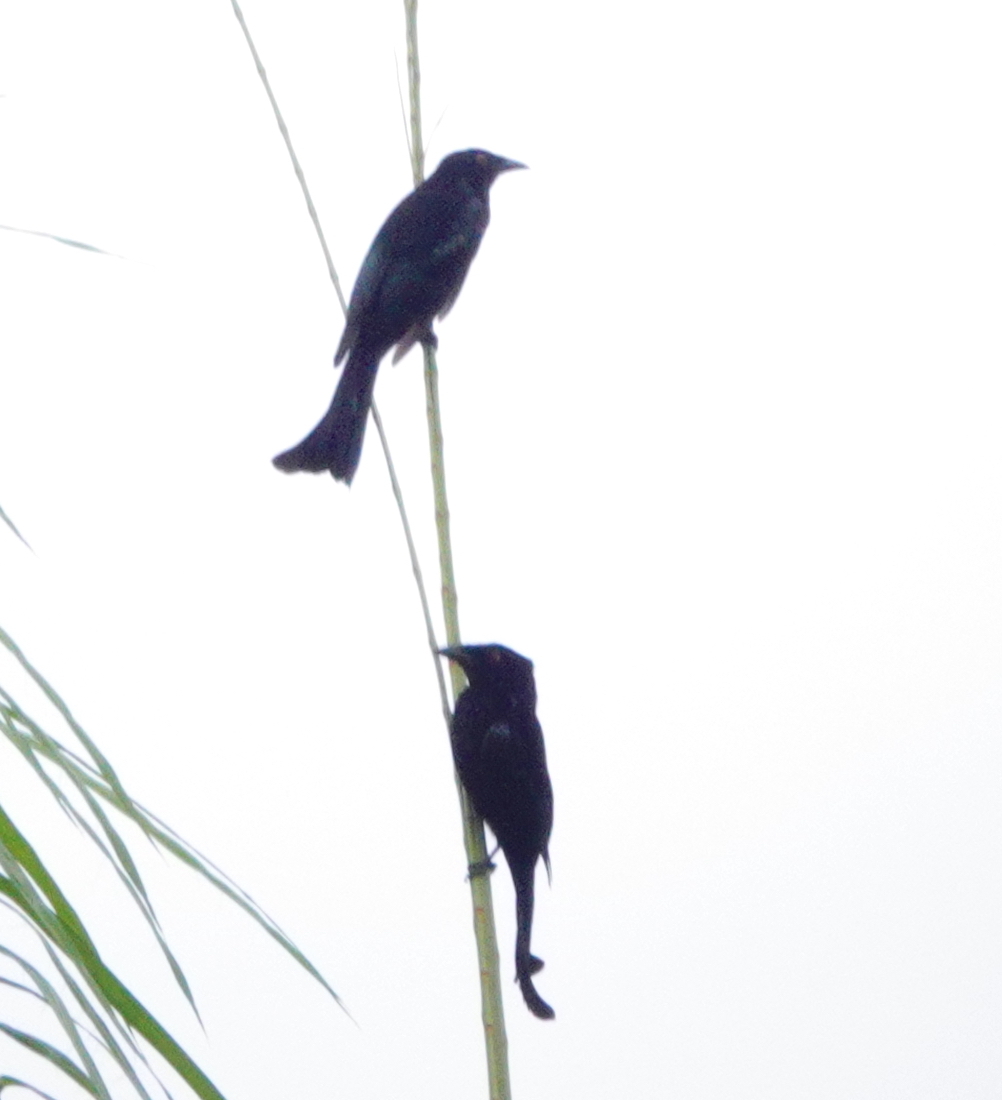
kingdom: Animalia
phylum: Chordata
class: Aves
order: Passeriformes
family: Dicruridae
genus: Dicrurus
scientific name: Dicrurus bracteatus
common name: Spangled drongo
